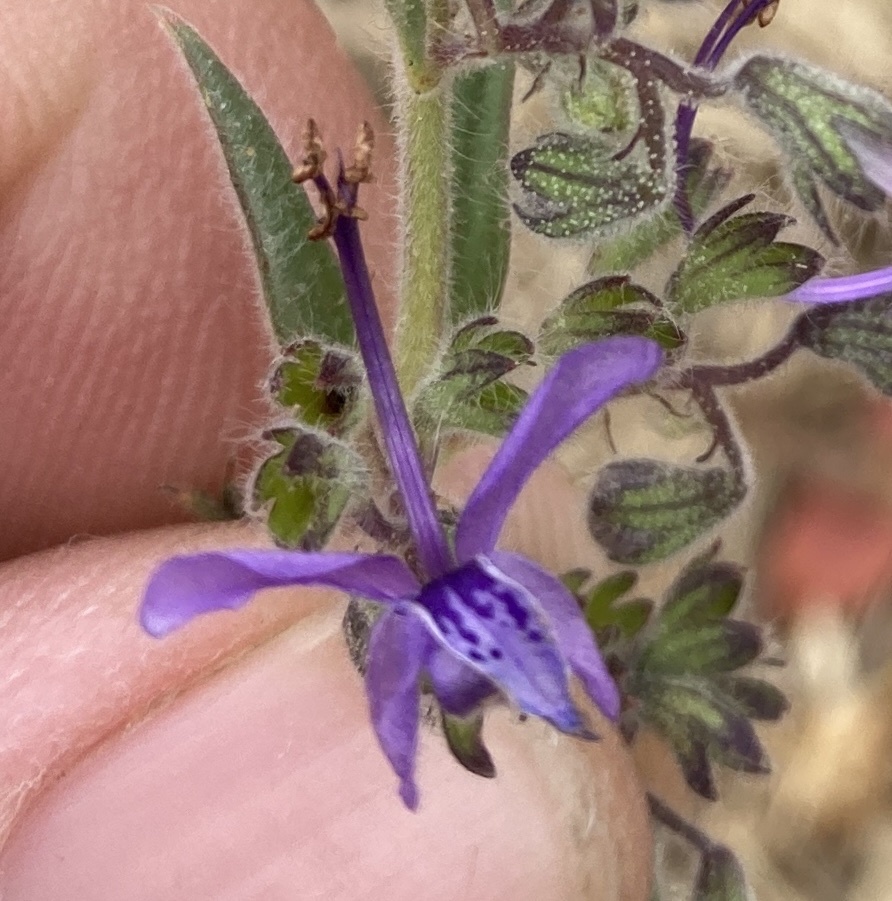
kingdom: Plantae
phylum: Tracheophyta
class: Magnoliopsida
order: Lamiales
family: Lamiaceae
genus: Trichostema
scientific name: Trichostema lanceolatum
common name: Vinegar-weed
